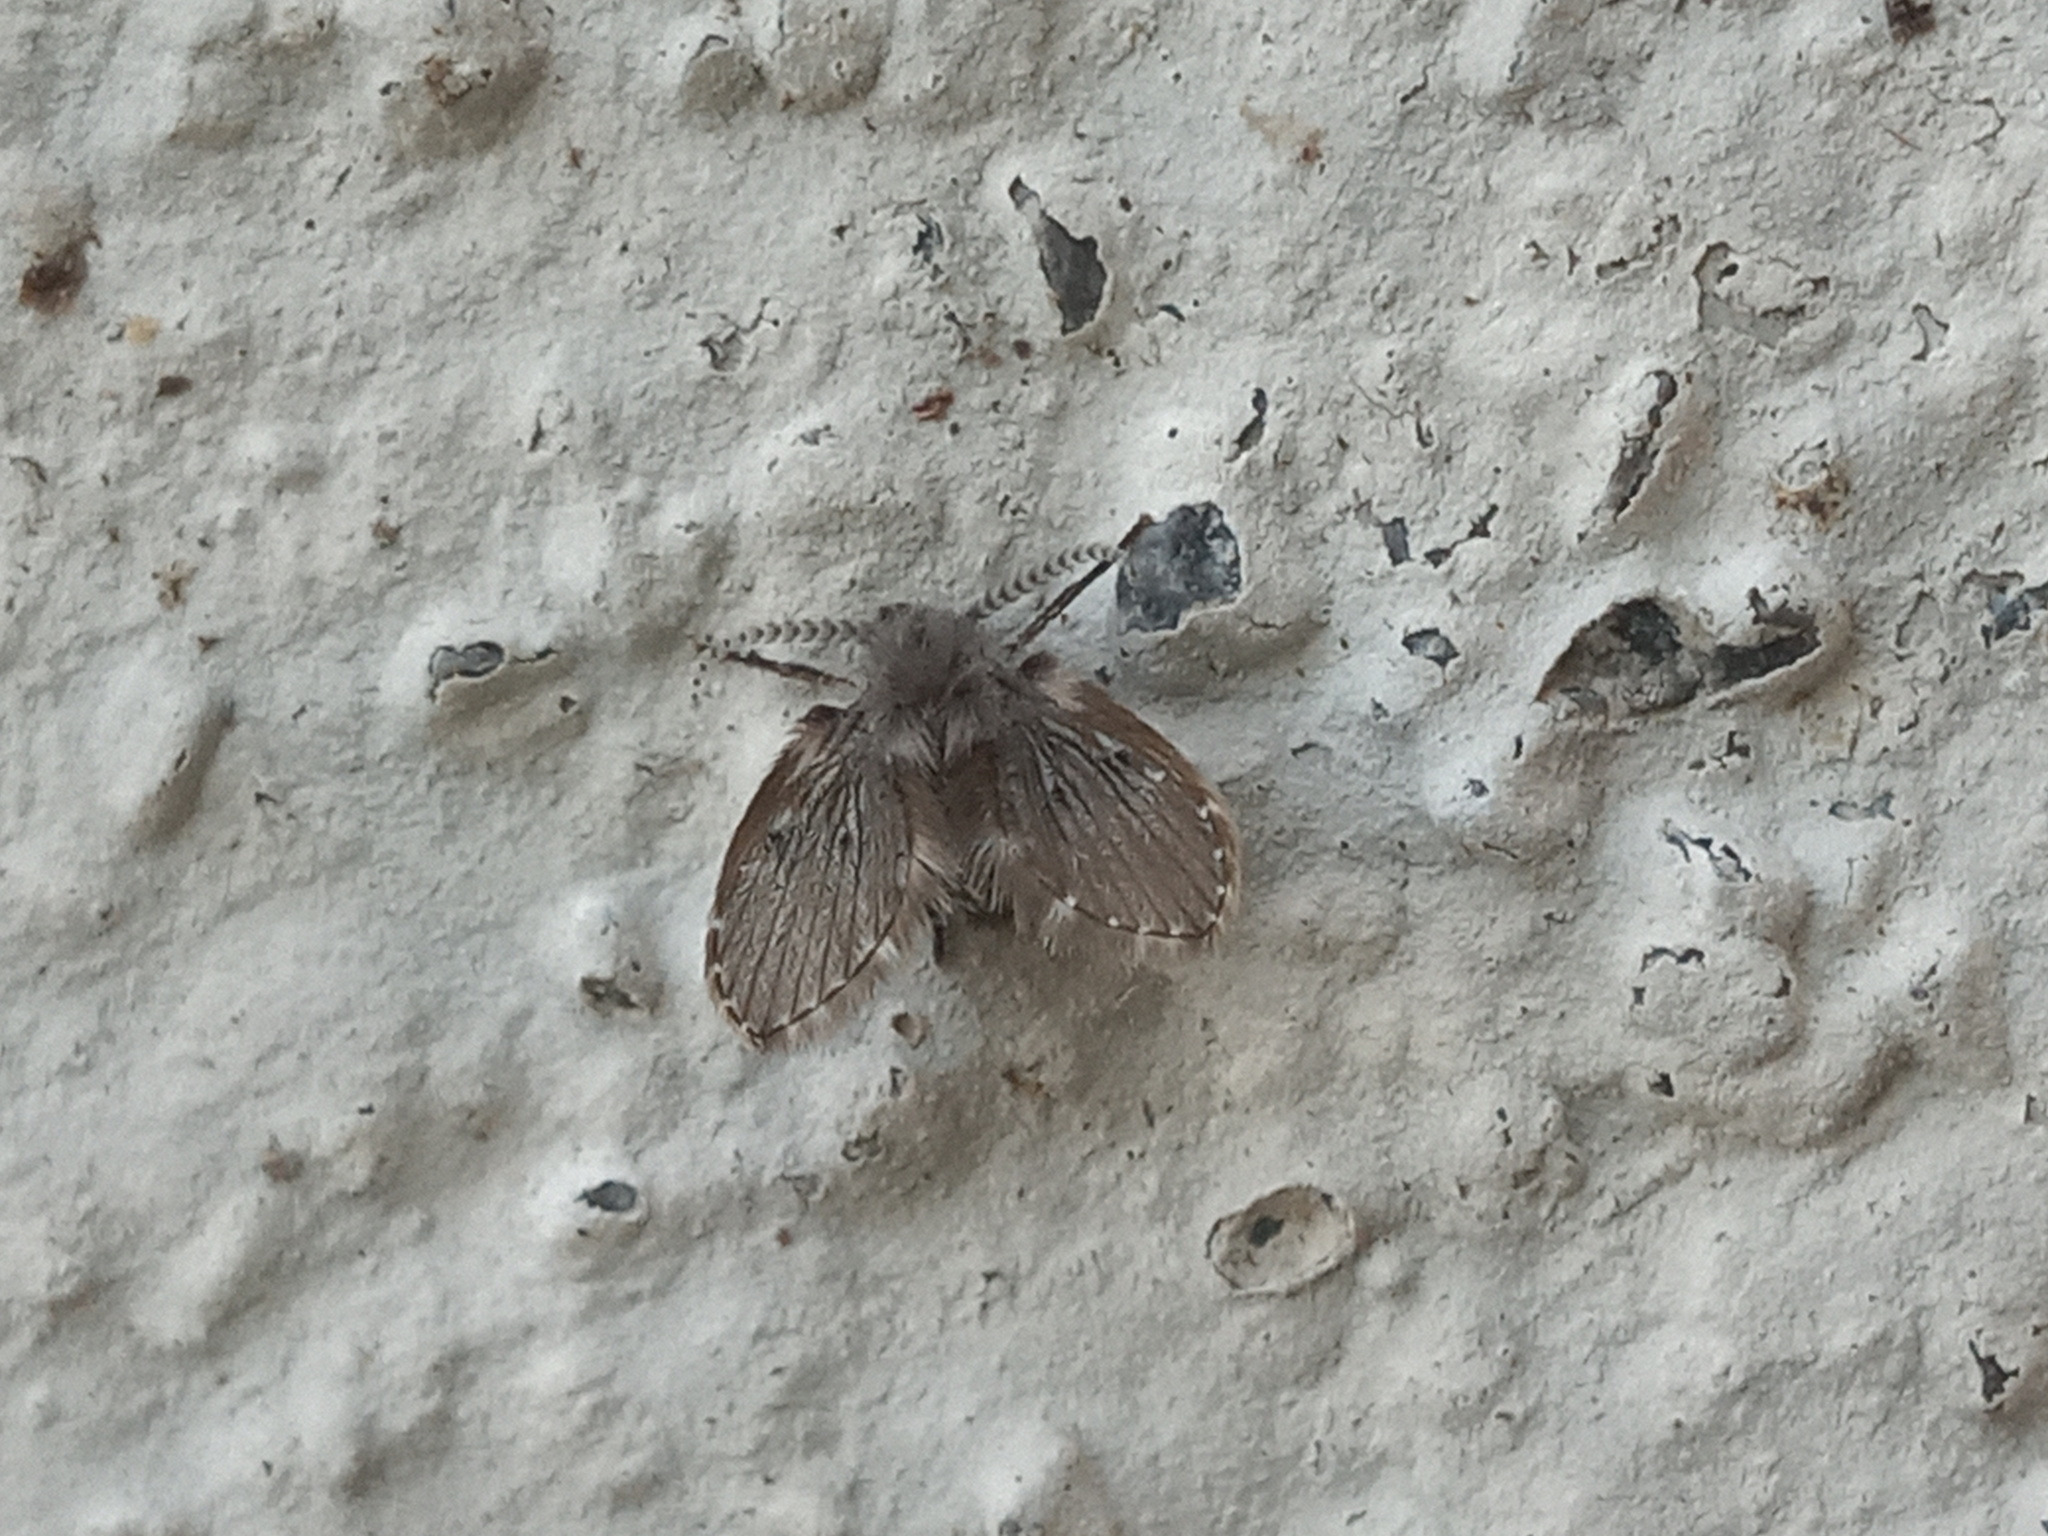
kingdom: Animalia
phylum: Arthropoda
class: Insecta
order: Diptera
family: Psychodidae
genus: Clogmia
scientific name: Clogmia albipunctatus
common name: White-spotted moth fly
